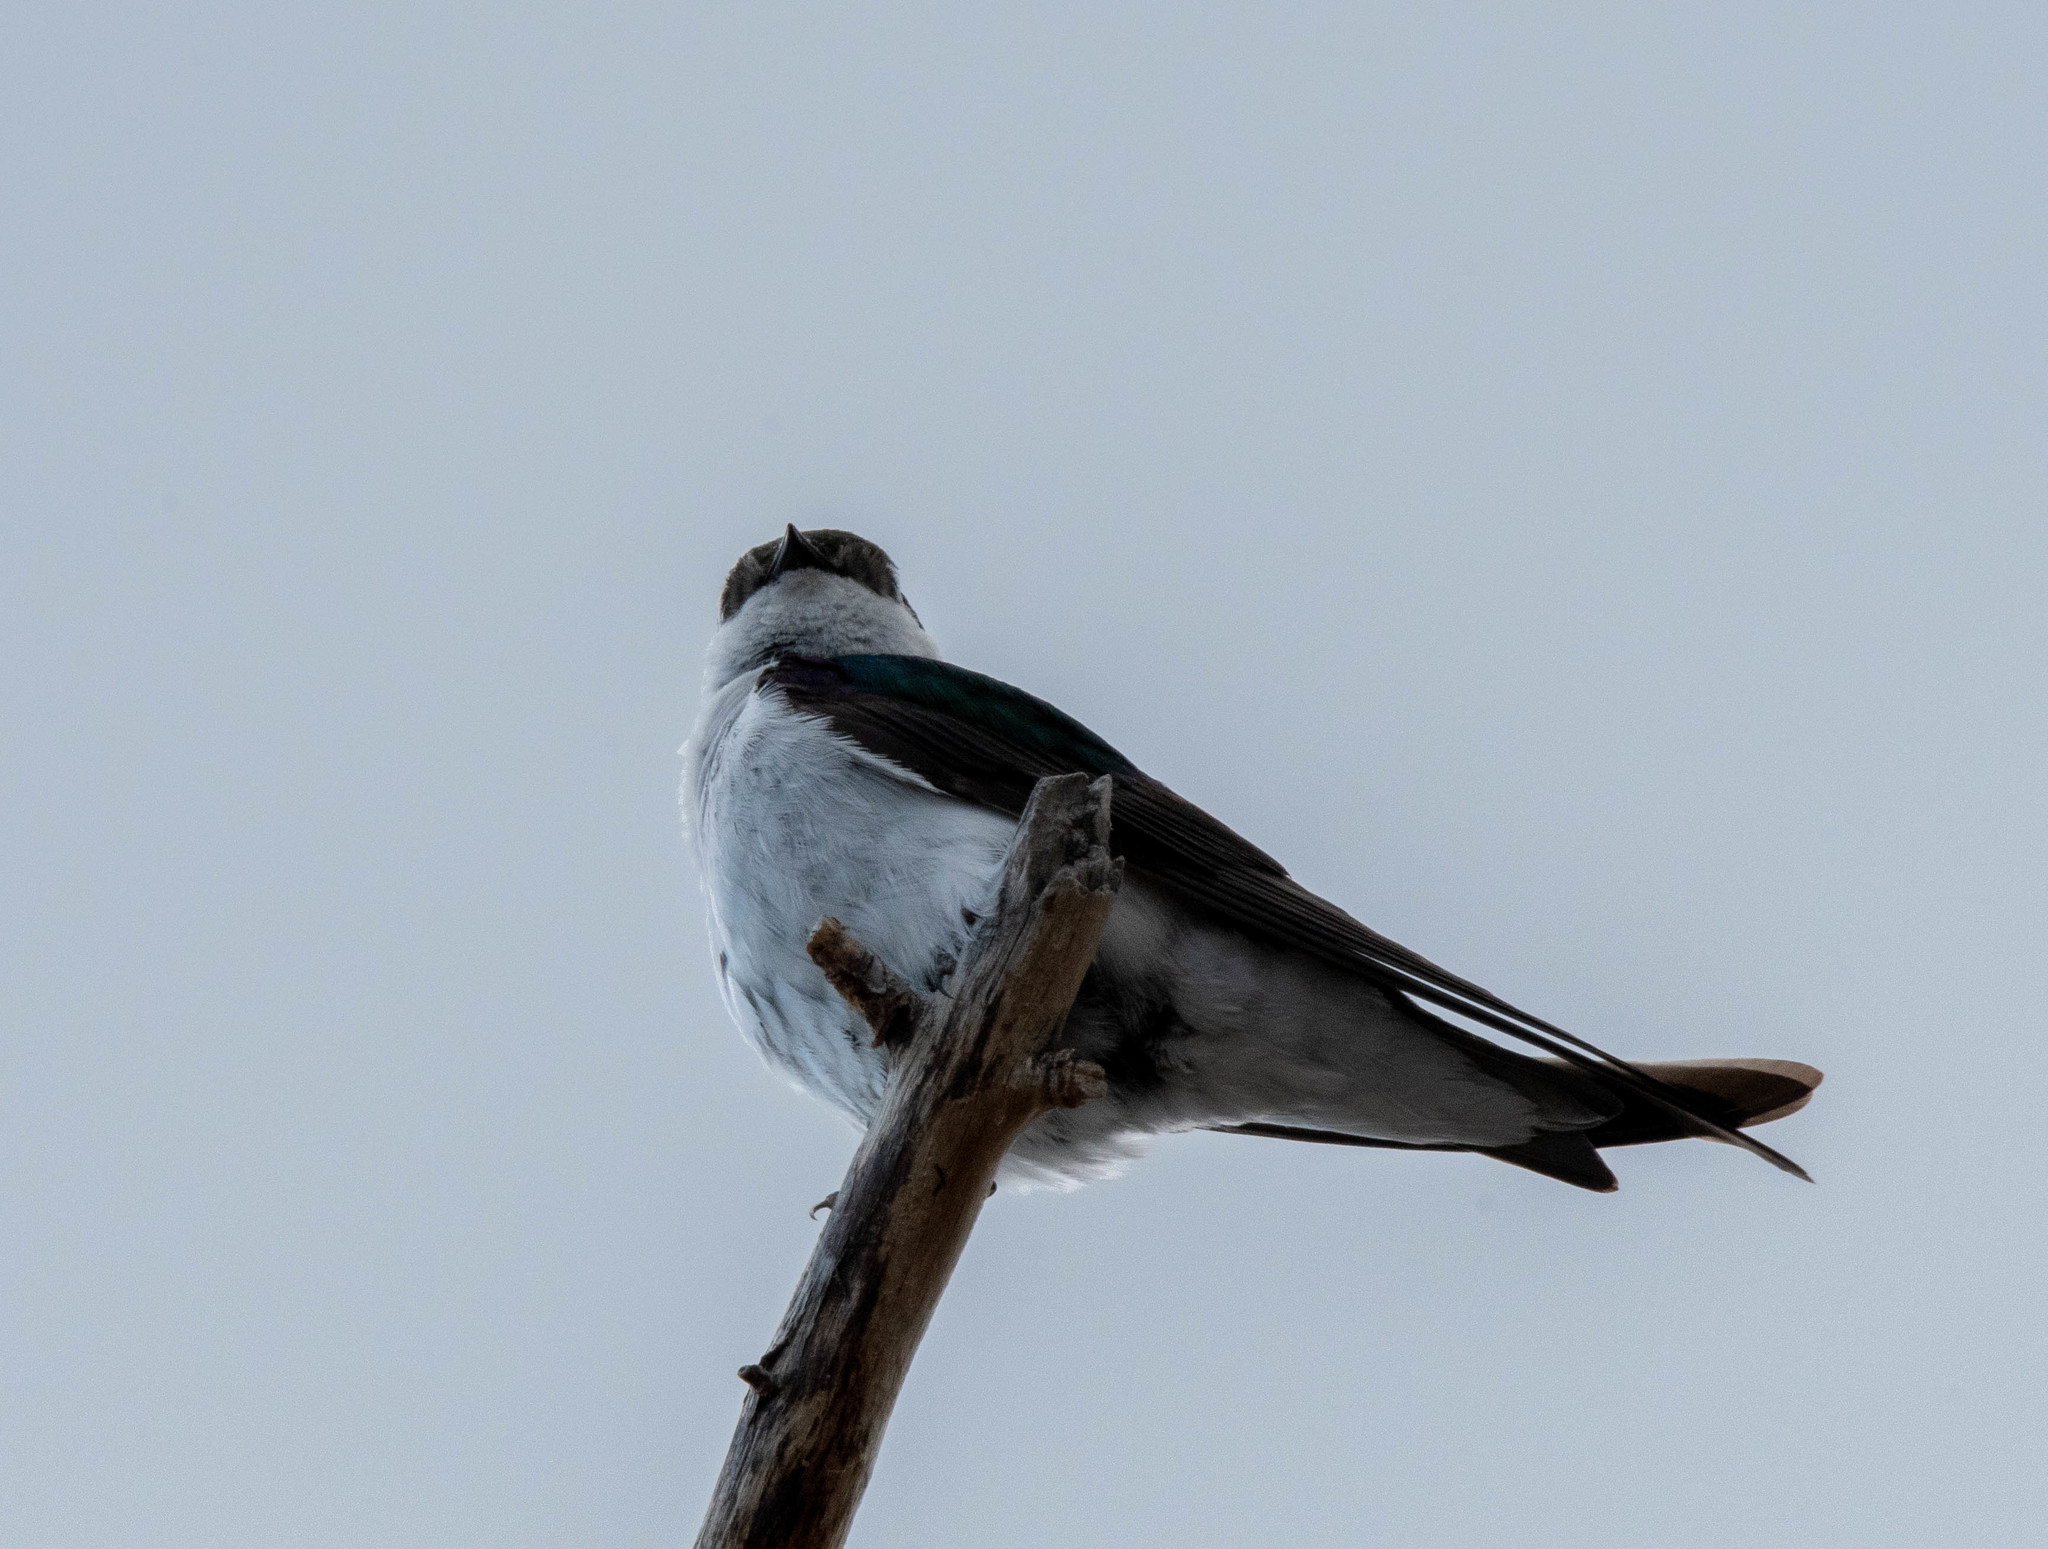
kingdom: Animalia
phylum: Chordata
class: Aves
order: Passeriformes
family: Hirundinidae
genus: Tachycineta
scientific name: Tachycineta bicolor
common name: Tree swallow
